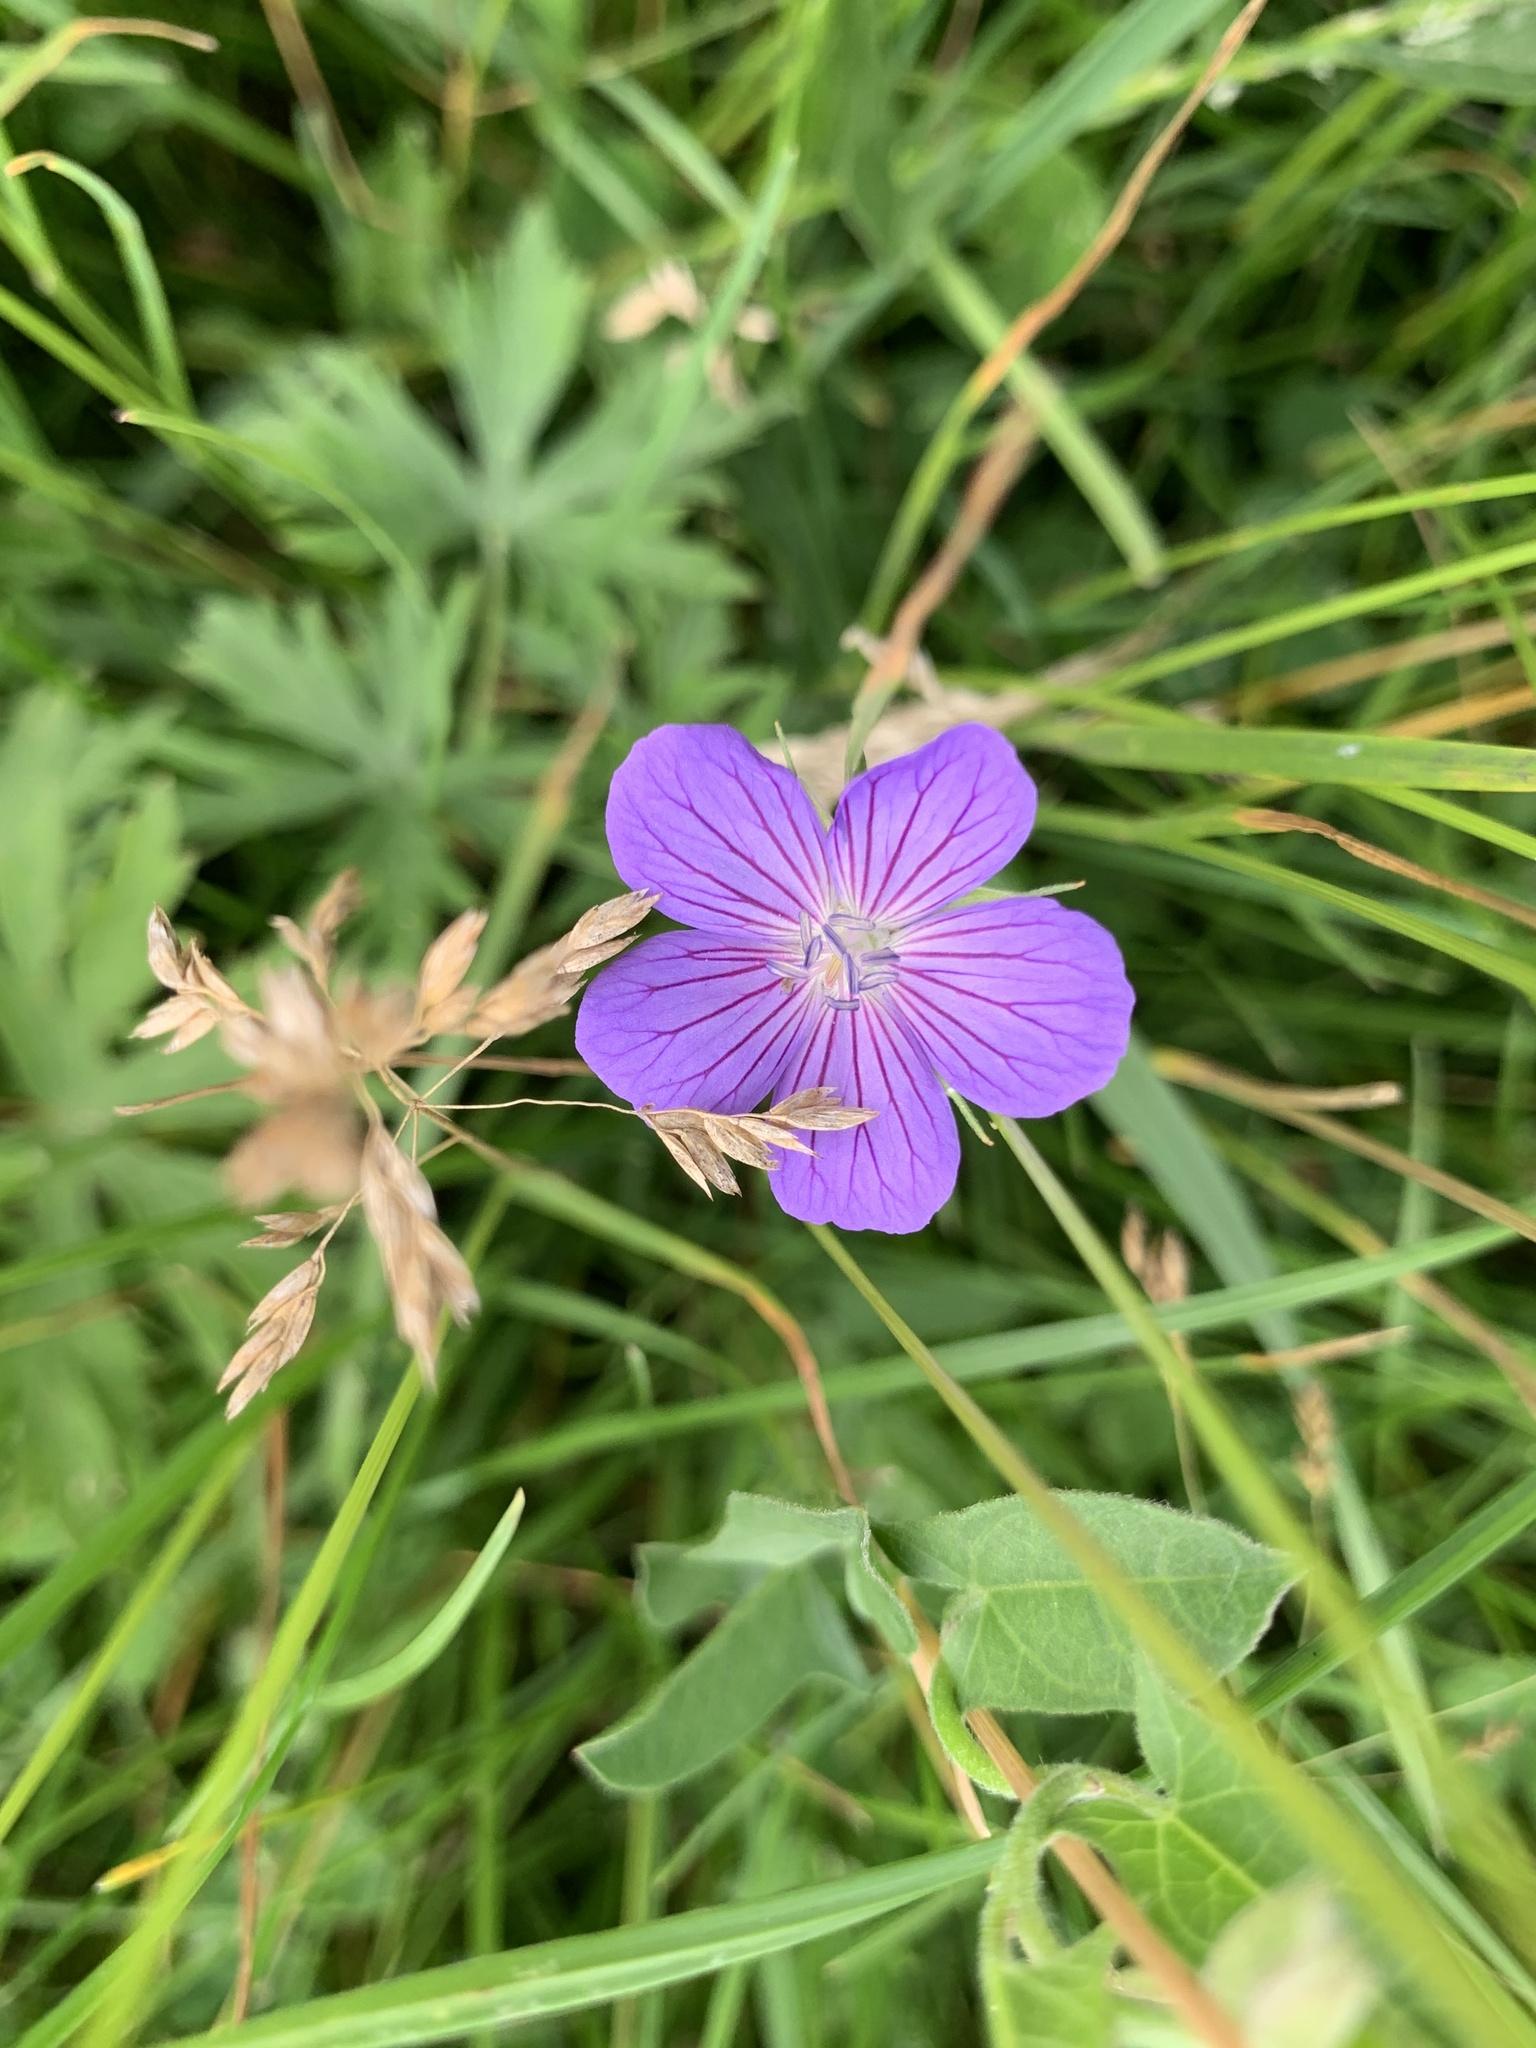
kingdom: Plantae
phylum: Tracheophyta
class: Magnoliopsida
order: Geraniales
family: Geraniaceae
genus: Geranium
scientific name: Geranium collinum
